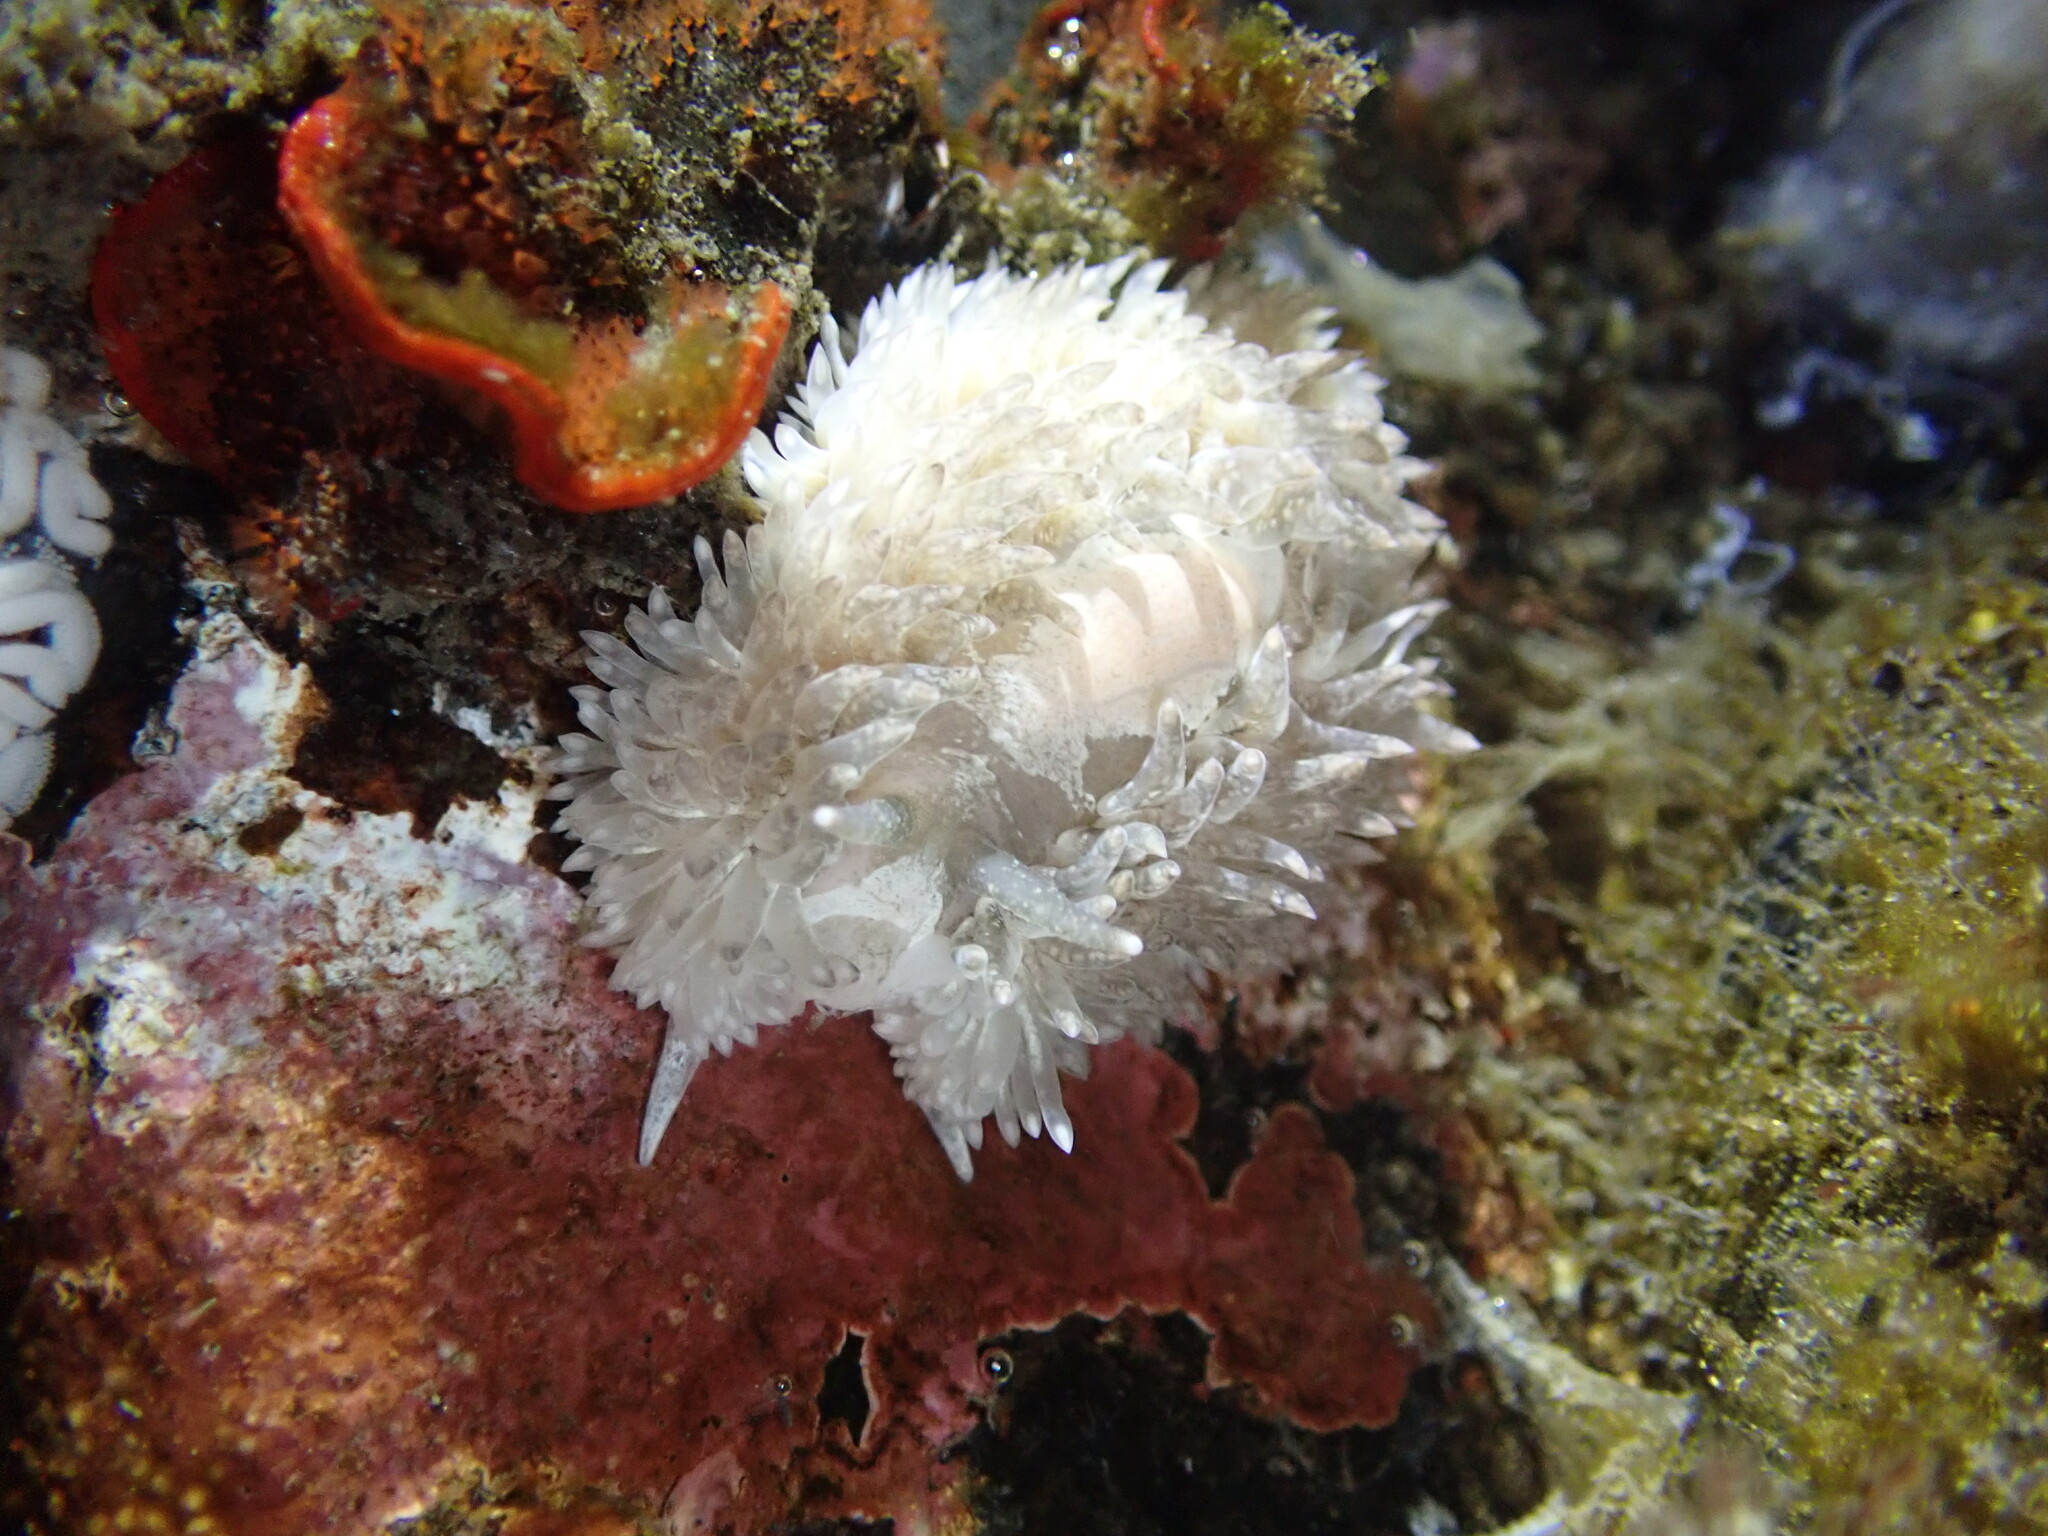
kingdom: Animalia
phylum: Mollusca
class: Gastropoda
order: Nudibranchia
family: Aeolidiidae
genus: Aeolidia
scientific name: Aeolidia loui
